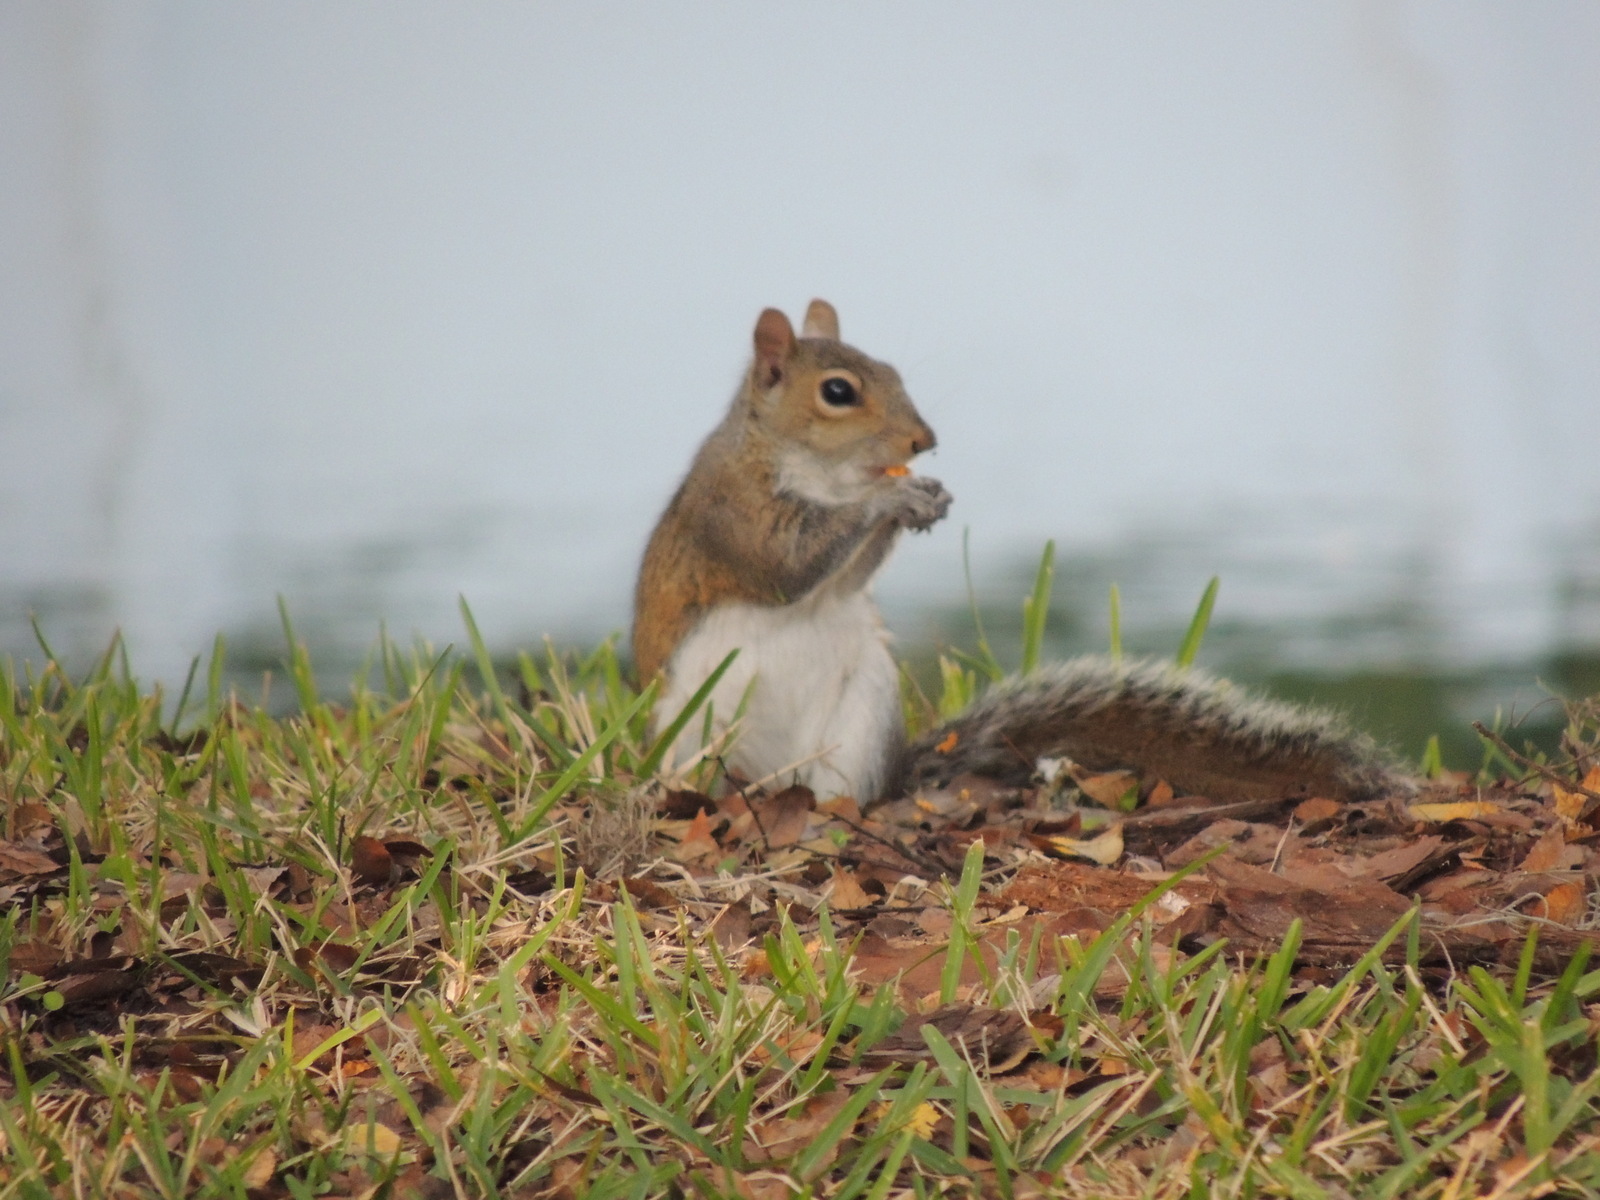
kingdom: Animalia
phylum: Chordata
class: Mammalia
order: Rodentia
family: Sciuridae
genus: Sciurus
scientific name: Sciurus carolinensis
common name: Eastern gray squirrel
